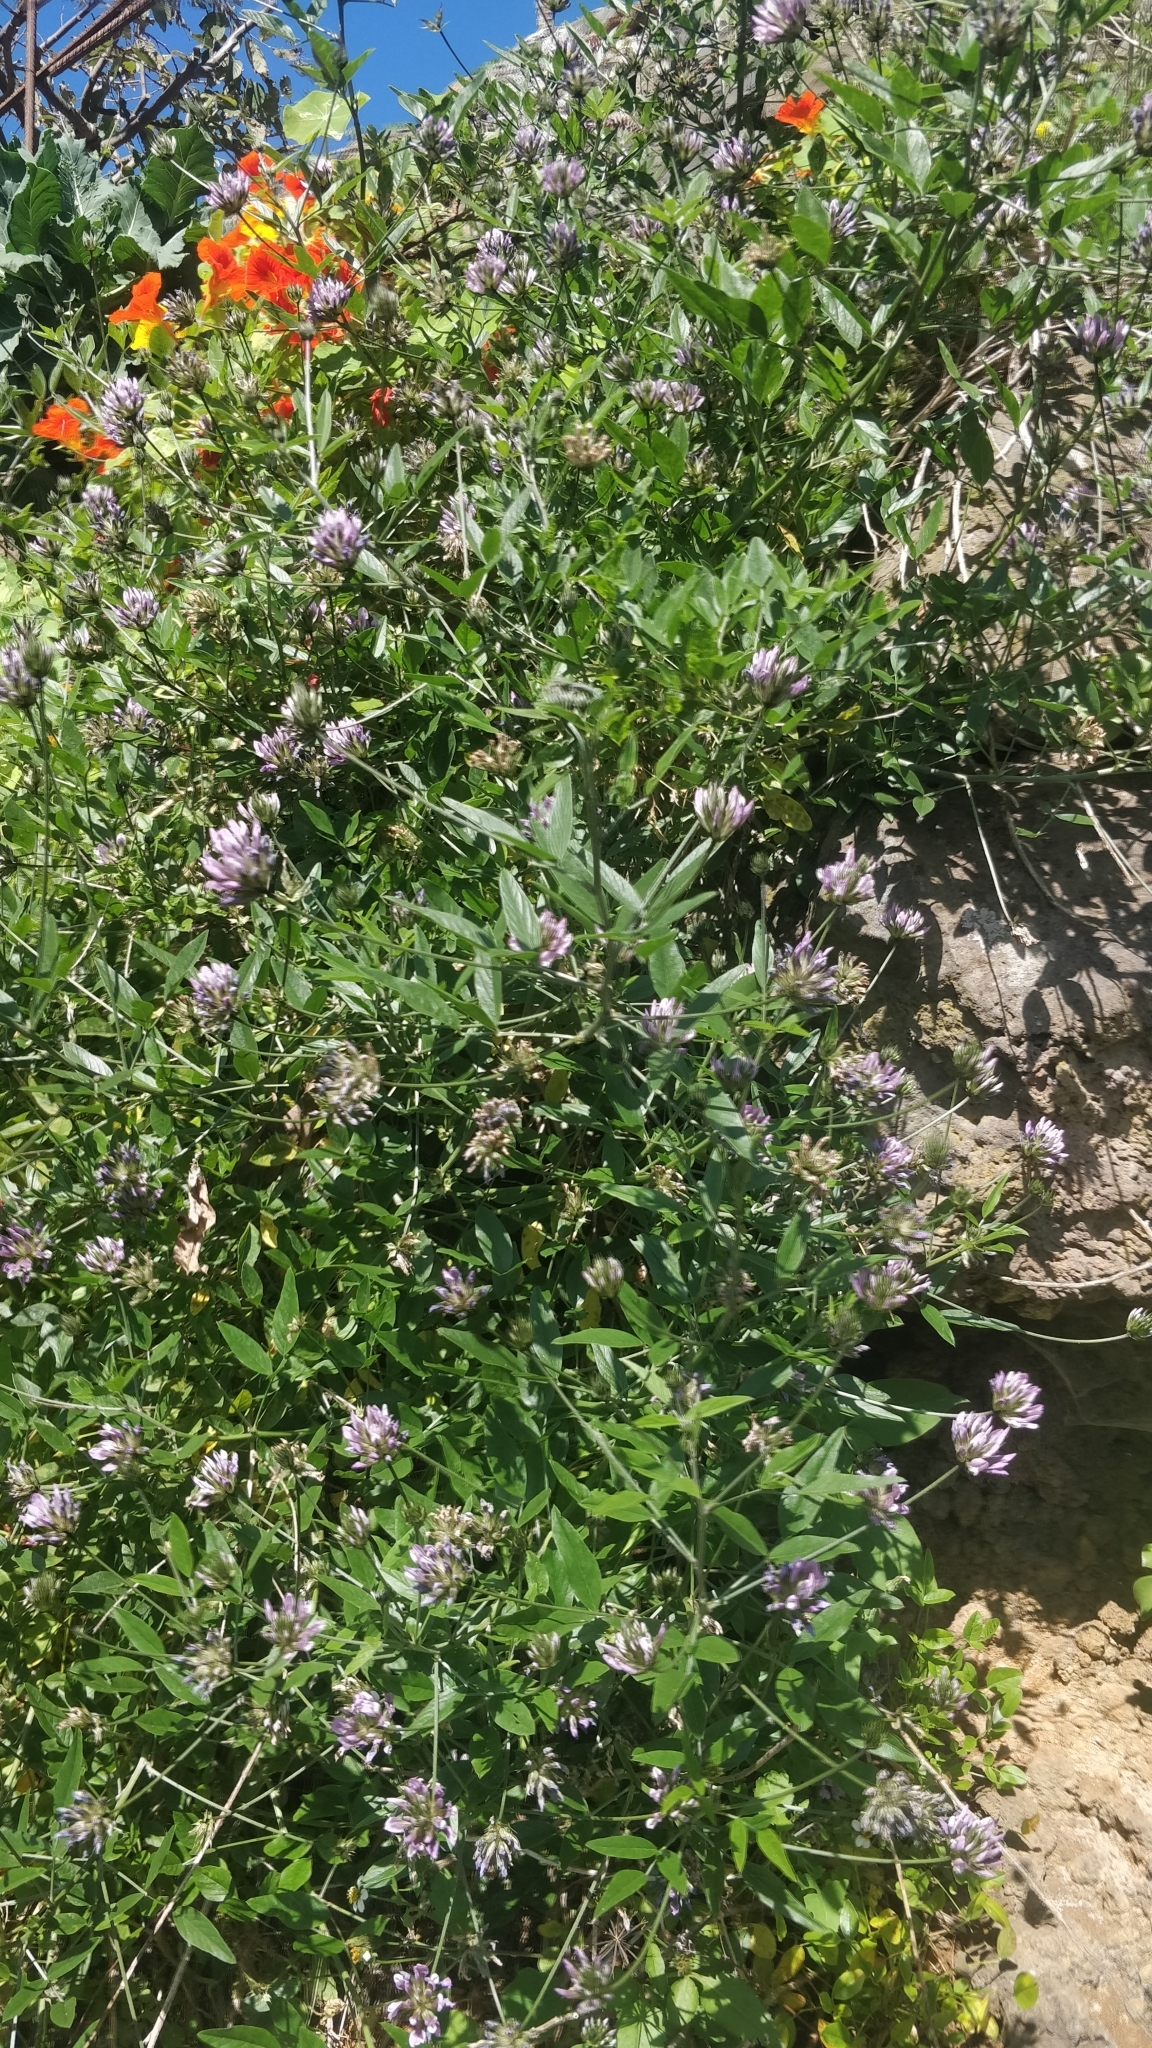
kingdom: Plantae
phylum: Tracheophyta
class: Magnoliopsida
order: Fabales
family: Fabaceae
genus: Bituminaria
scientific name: Bituminaria bituminosa
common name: Arabian pea
